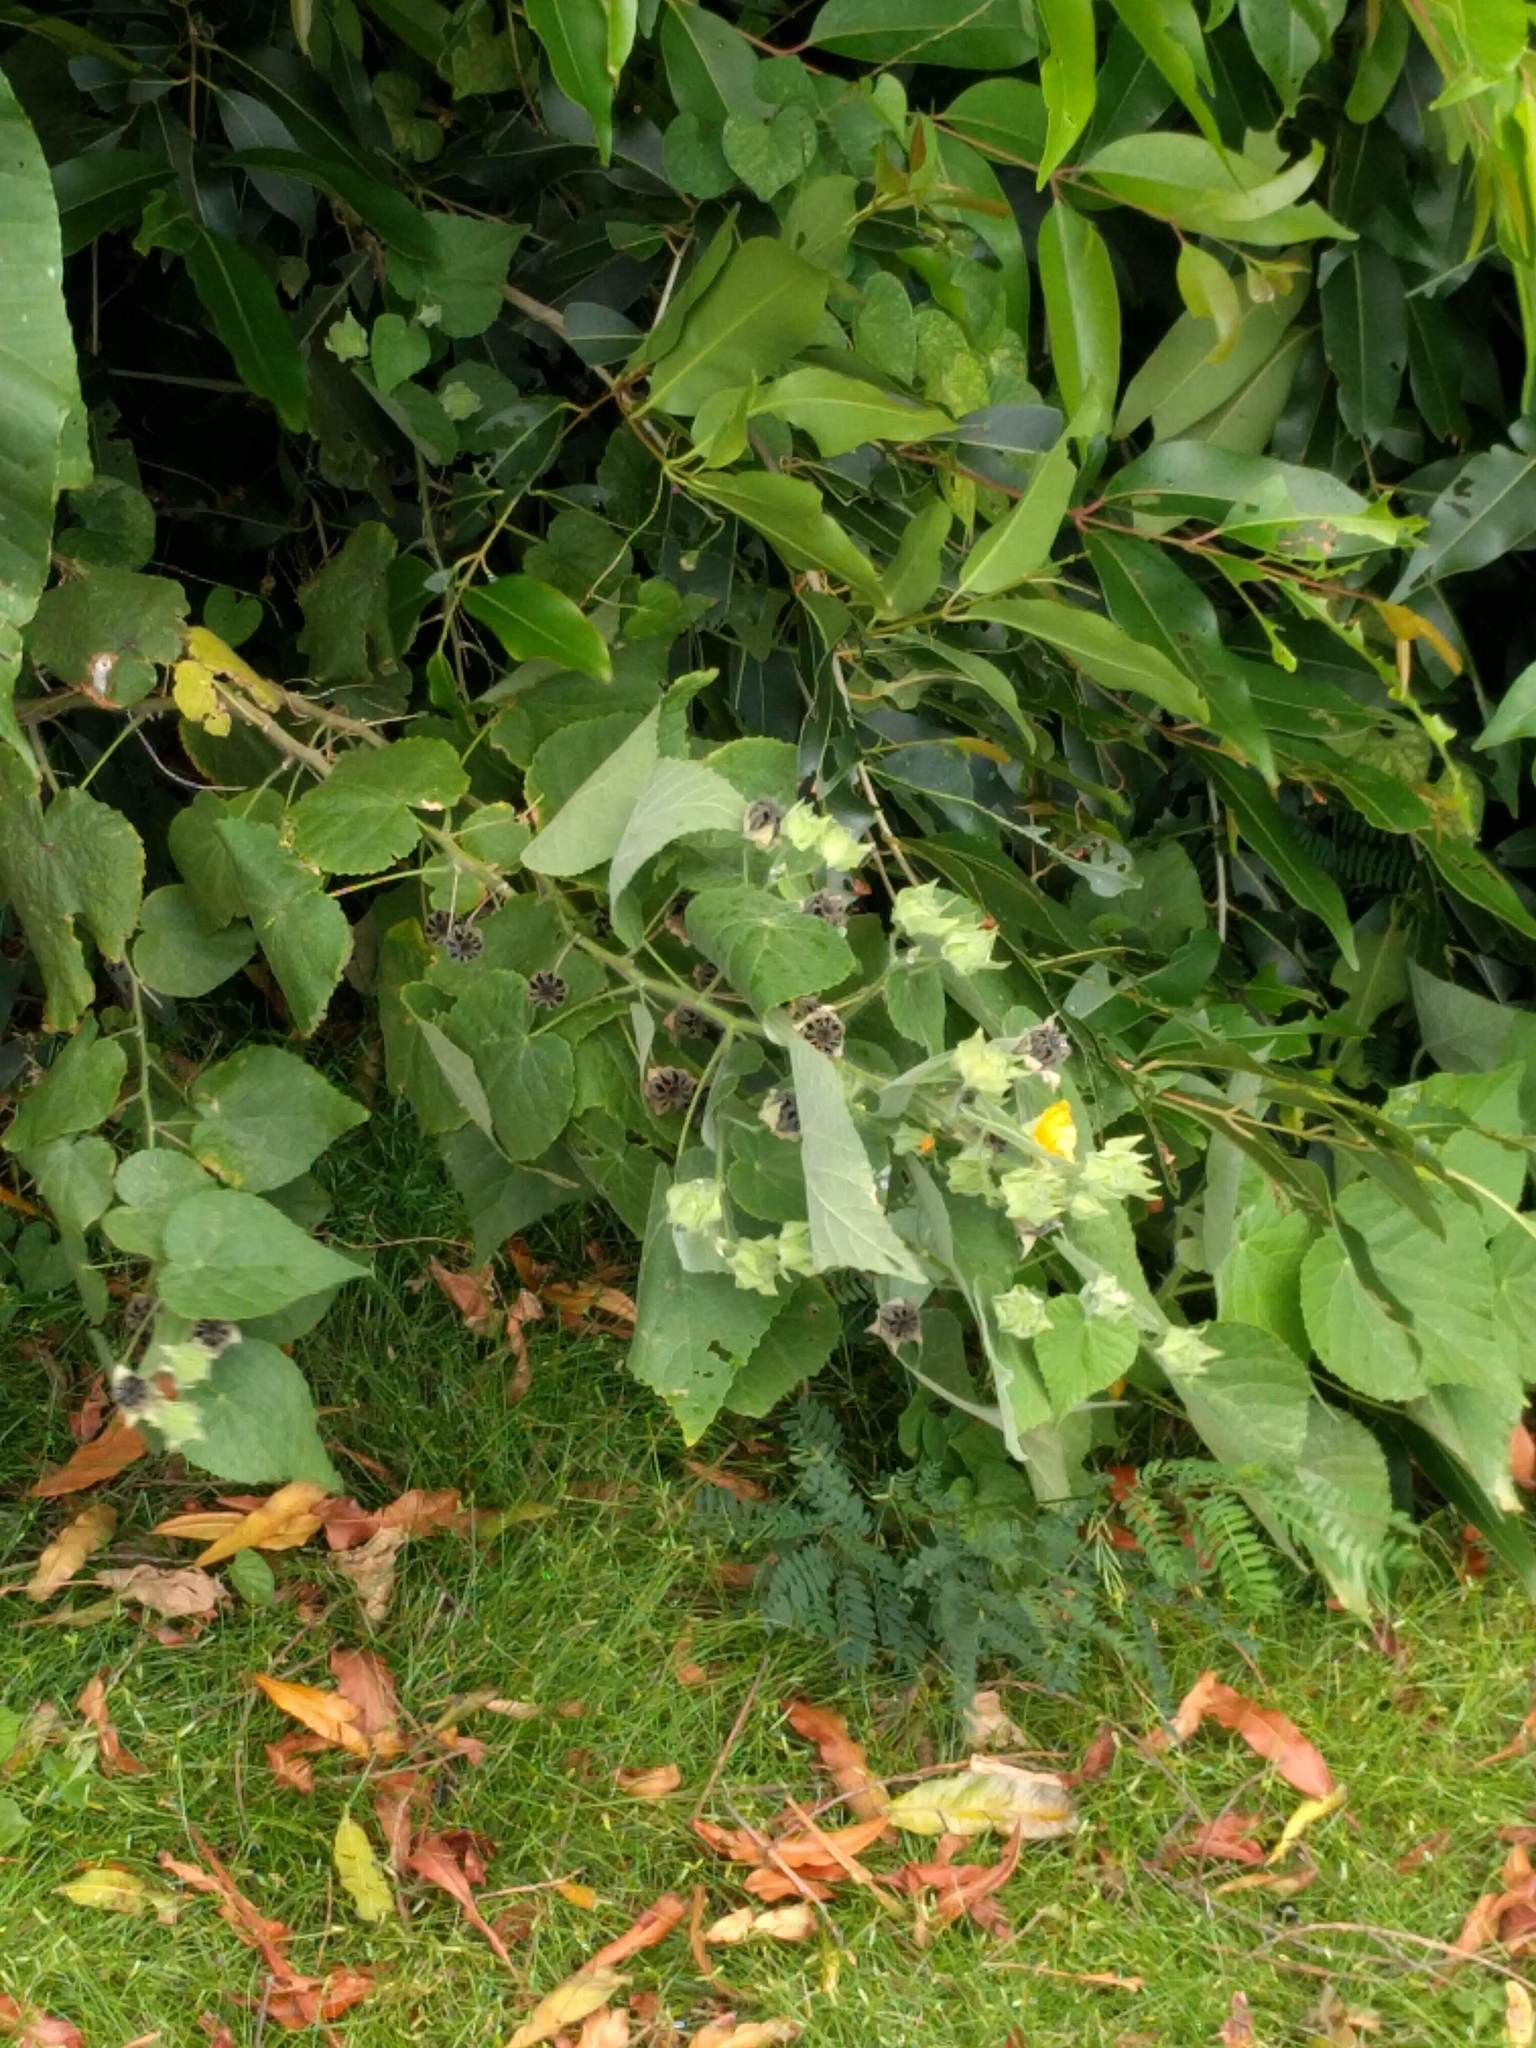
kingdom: Plantae
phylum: Tracheophyta
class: Magnoliopsida
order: Malvales
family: Malvaceae
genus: Abutilon
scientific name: Abutilon grandifolium
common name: Hairy abutilon
